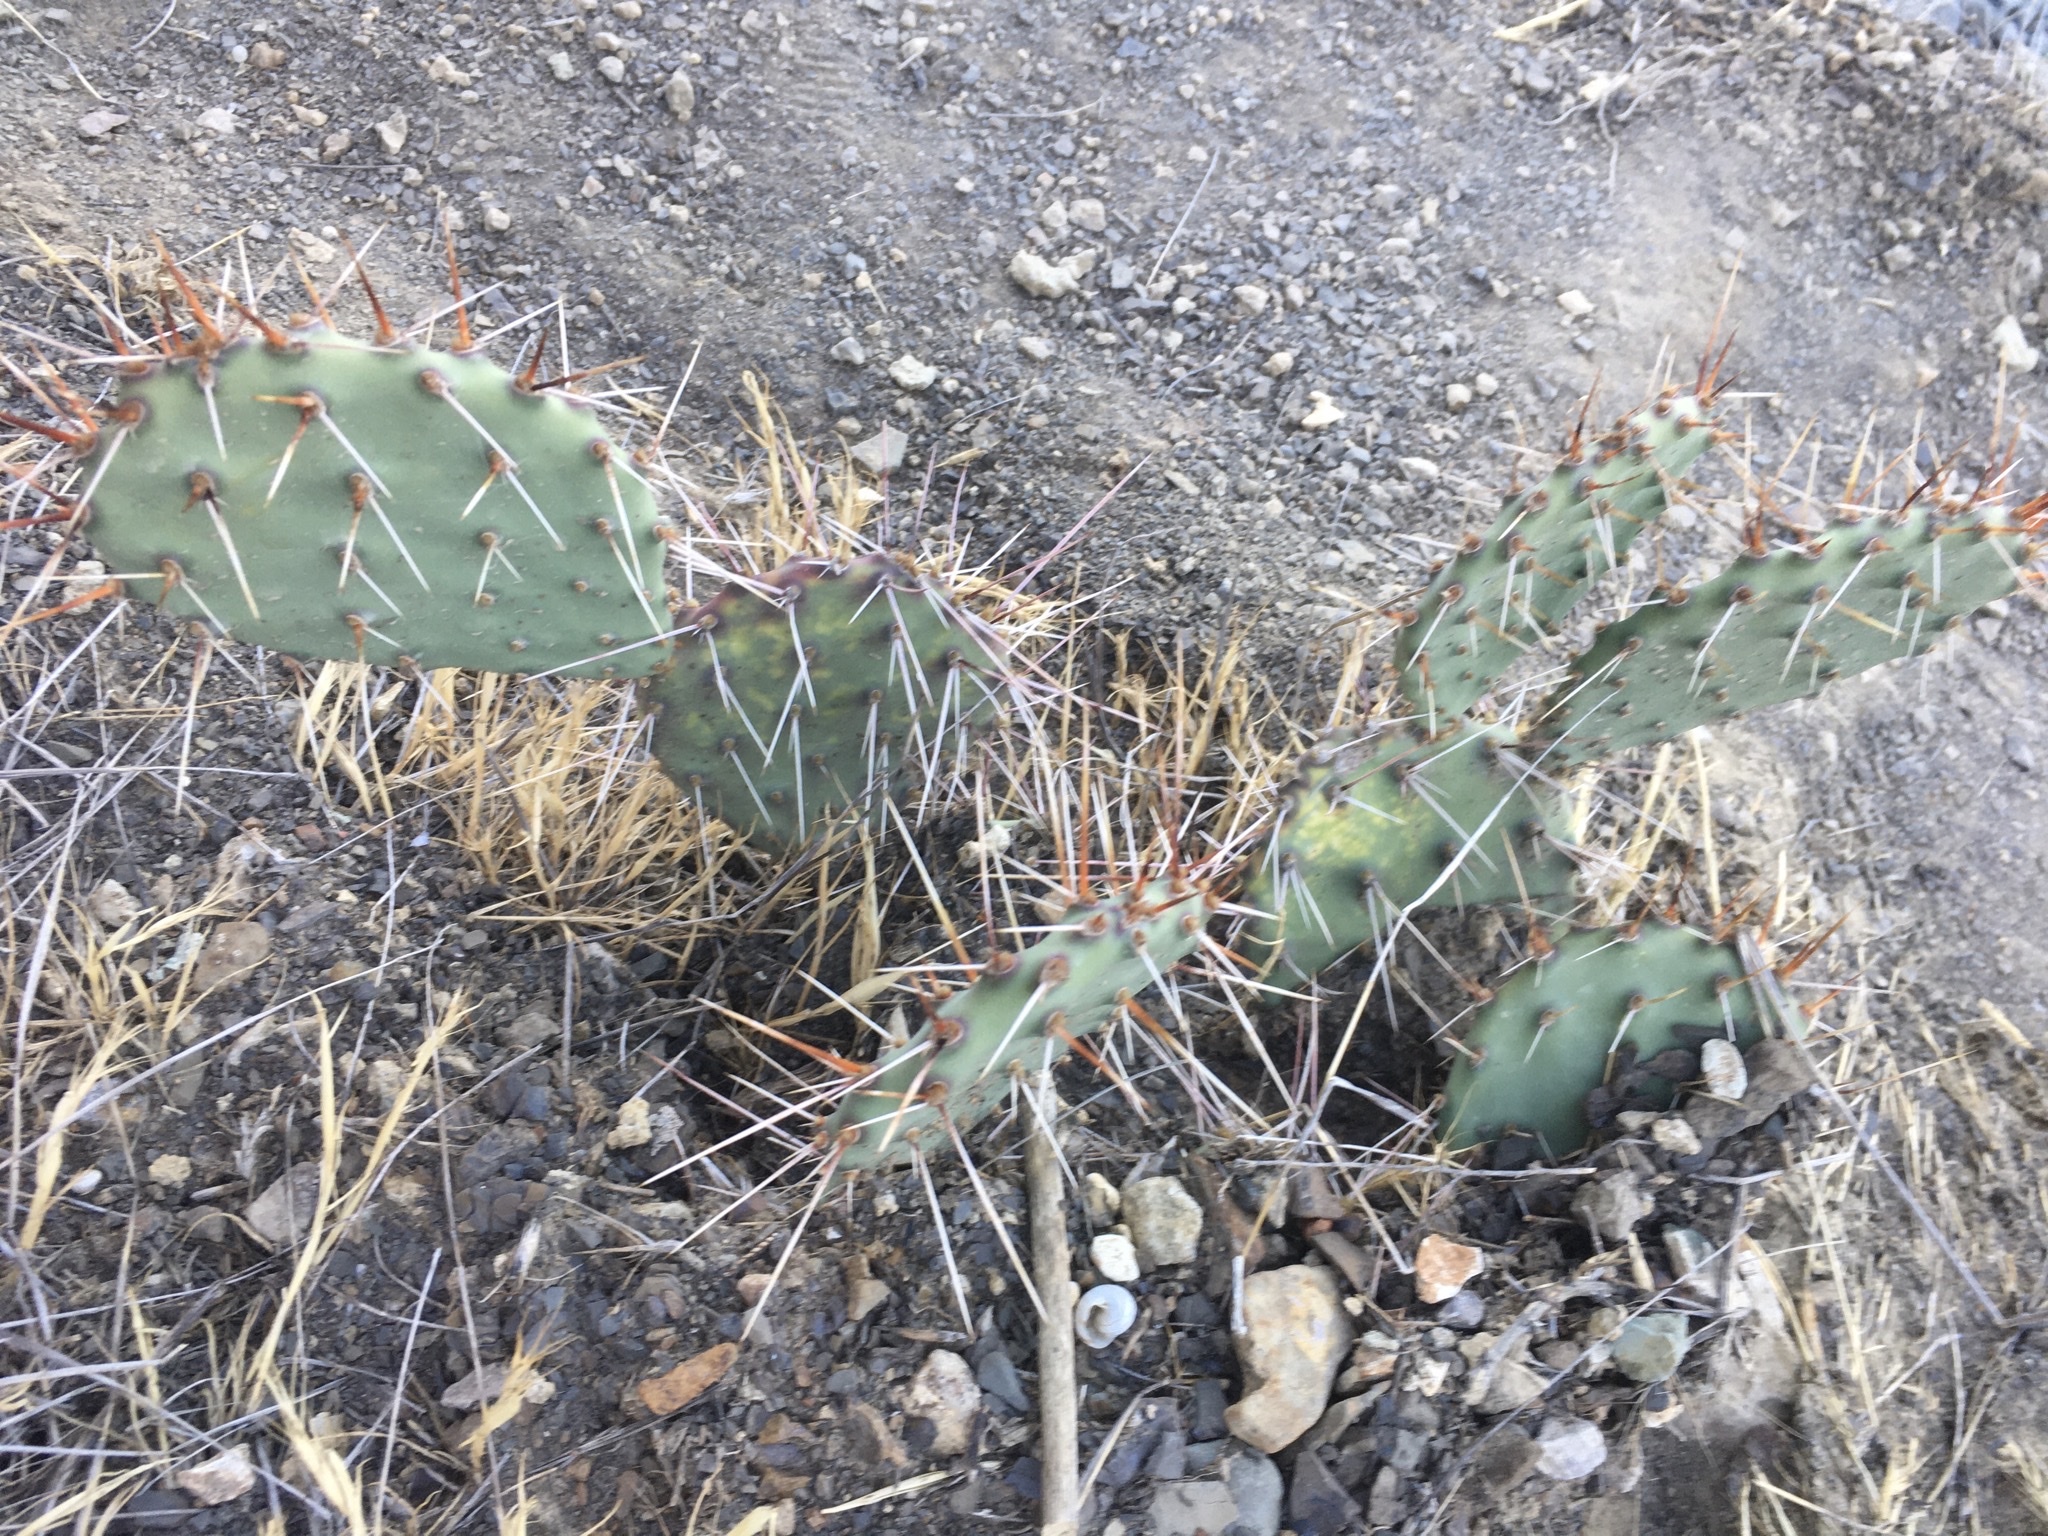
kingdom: Plantae
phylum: Tracheophyta
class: Magnoliopsida
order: Caryophyllales
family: Cactaceae
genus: Opuntia
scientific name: Opuntia phaeacantha
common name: New mexico prickly-pear
